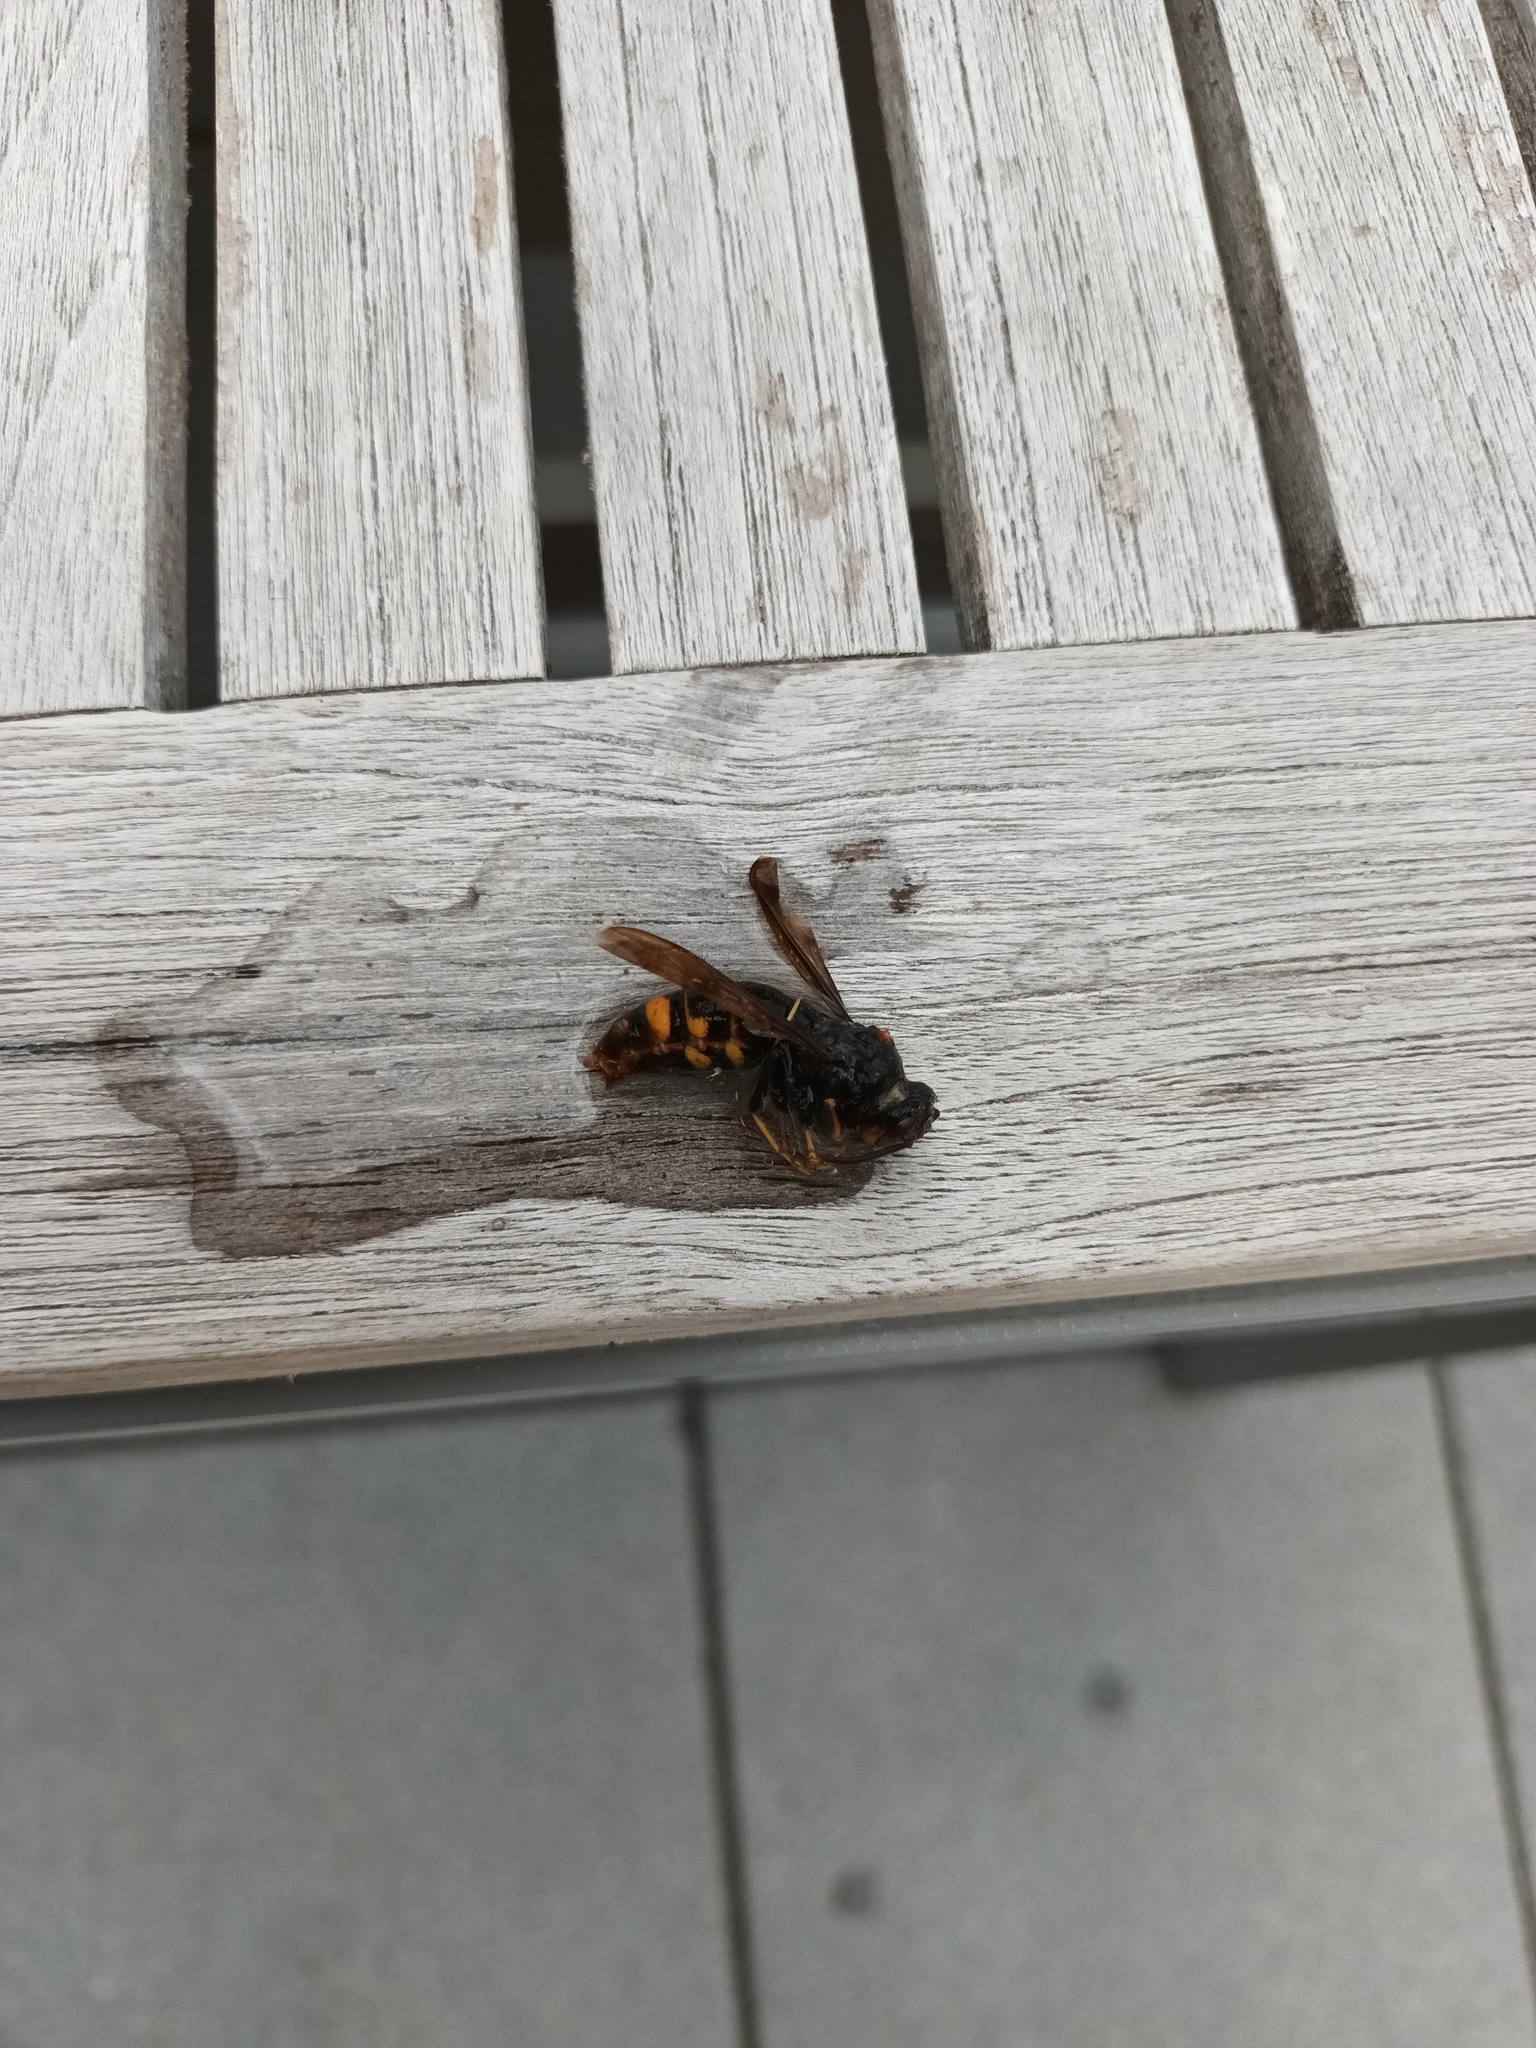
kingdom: Animalia
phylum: Arthropoda
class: Insecta
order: Hymenoptera
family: Vespidae
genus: Vespa
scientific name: Vespa velutina
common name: Asian hornet
